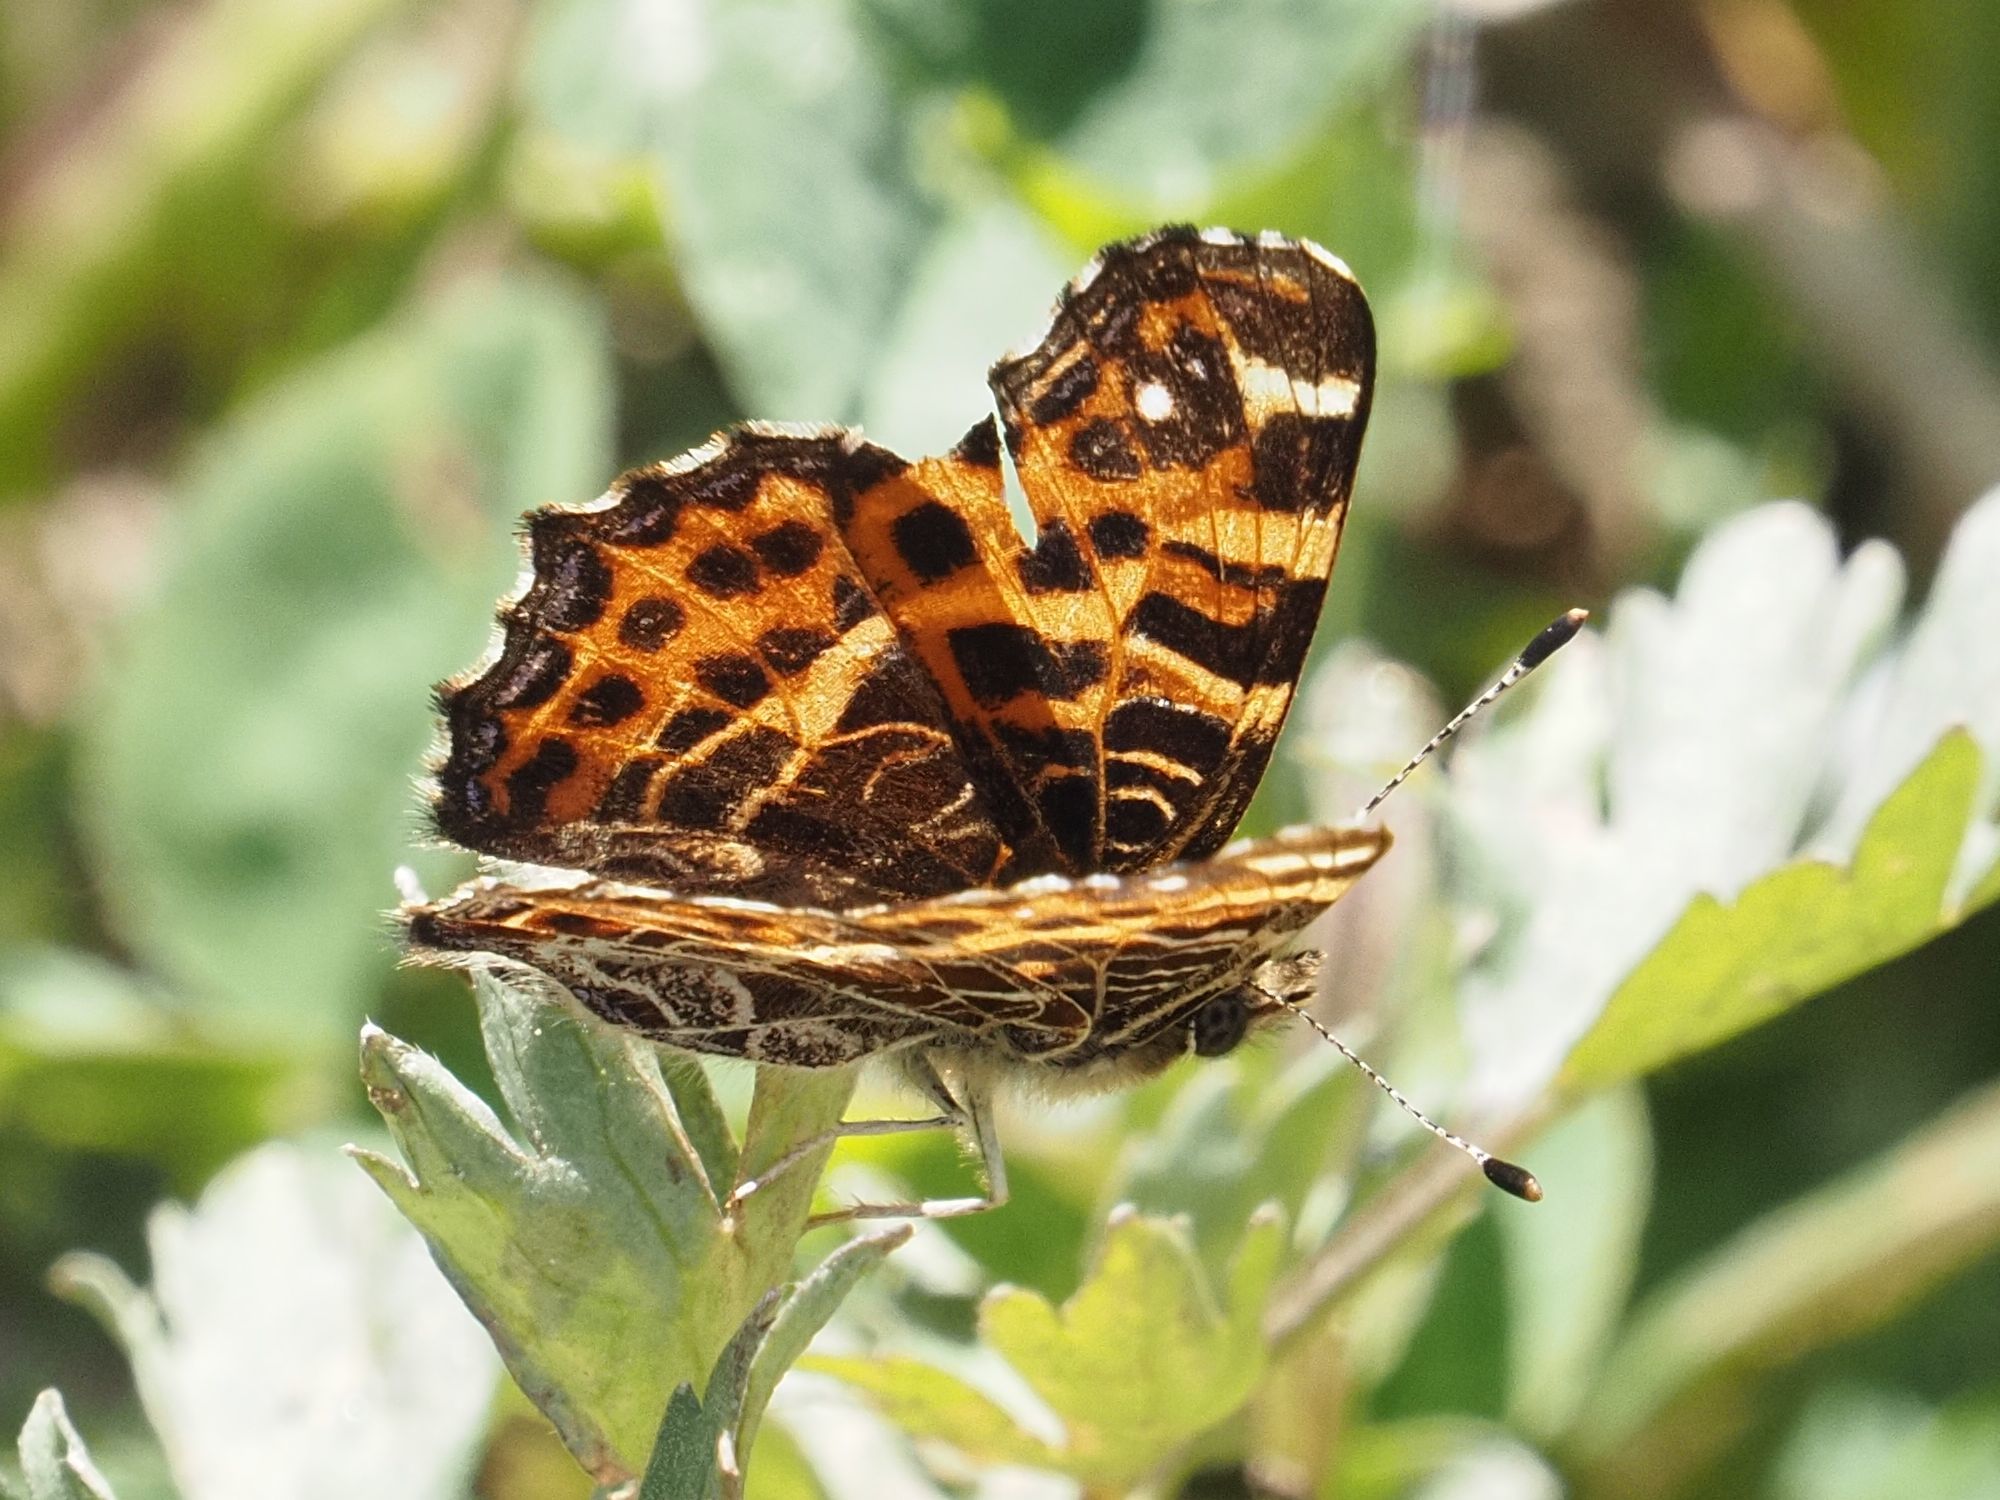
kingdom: Animalia
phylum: Arthropoda
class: Insecta
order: Lepidoptera
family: Nymphalidae
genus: Araschnia
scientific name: Araschnia levana
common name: Map butterfly
